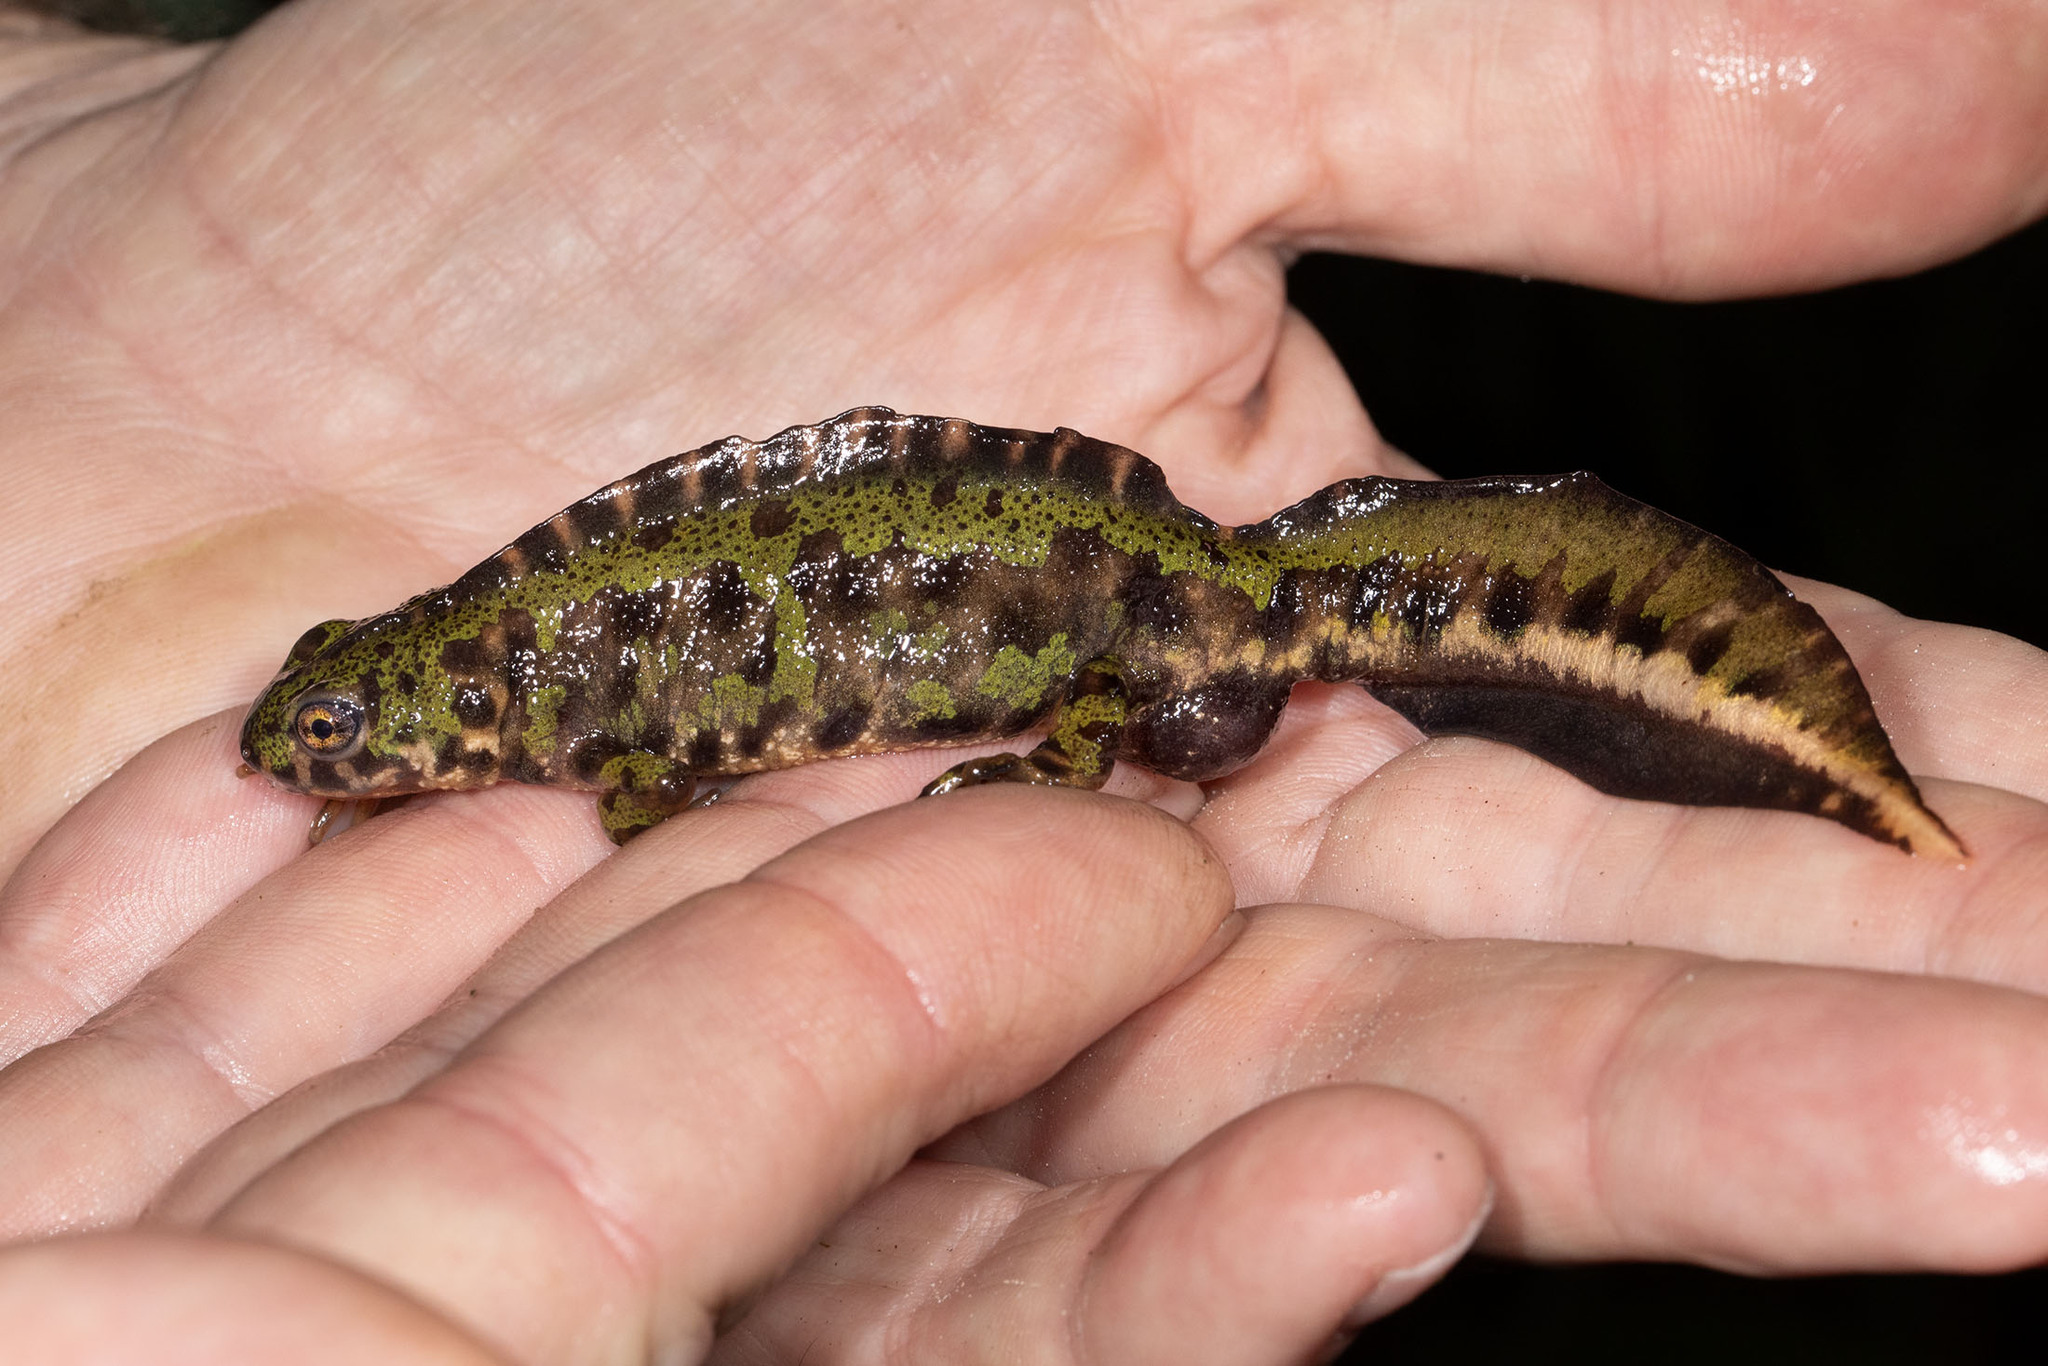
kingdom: Animalia
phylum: Chordata
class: Amphibia
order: Caudata
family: Salamandridae
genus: Triturus
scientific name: Triturus marmoratus
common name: Marbled newt
